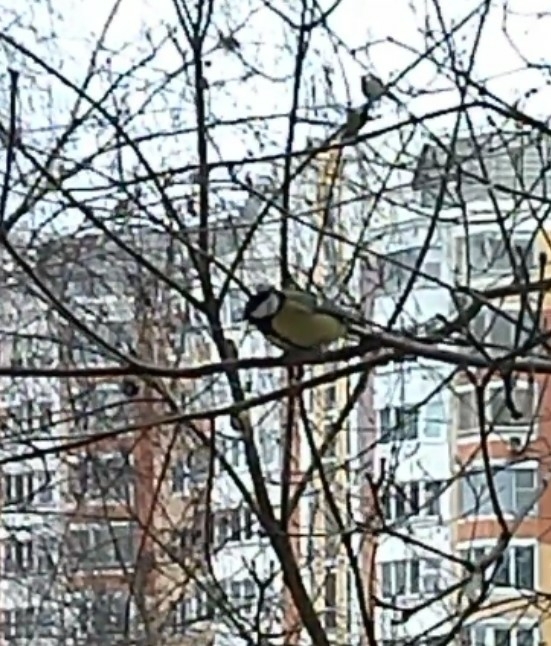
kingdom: Animalia
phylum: Chordata
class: Aves
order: Passeriformes
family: Paridae
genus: Parus
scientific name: Parus major
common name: Great tit
